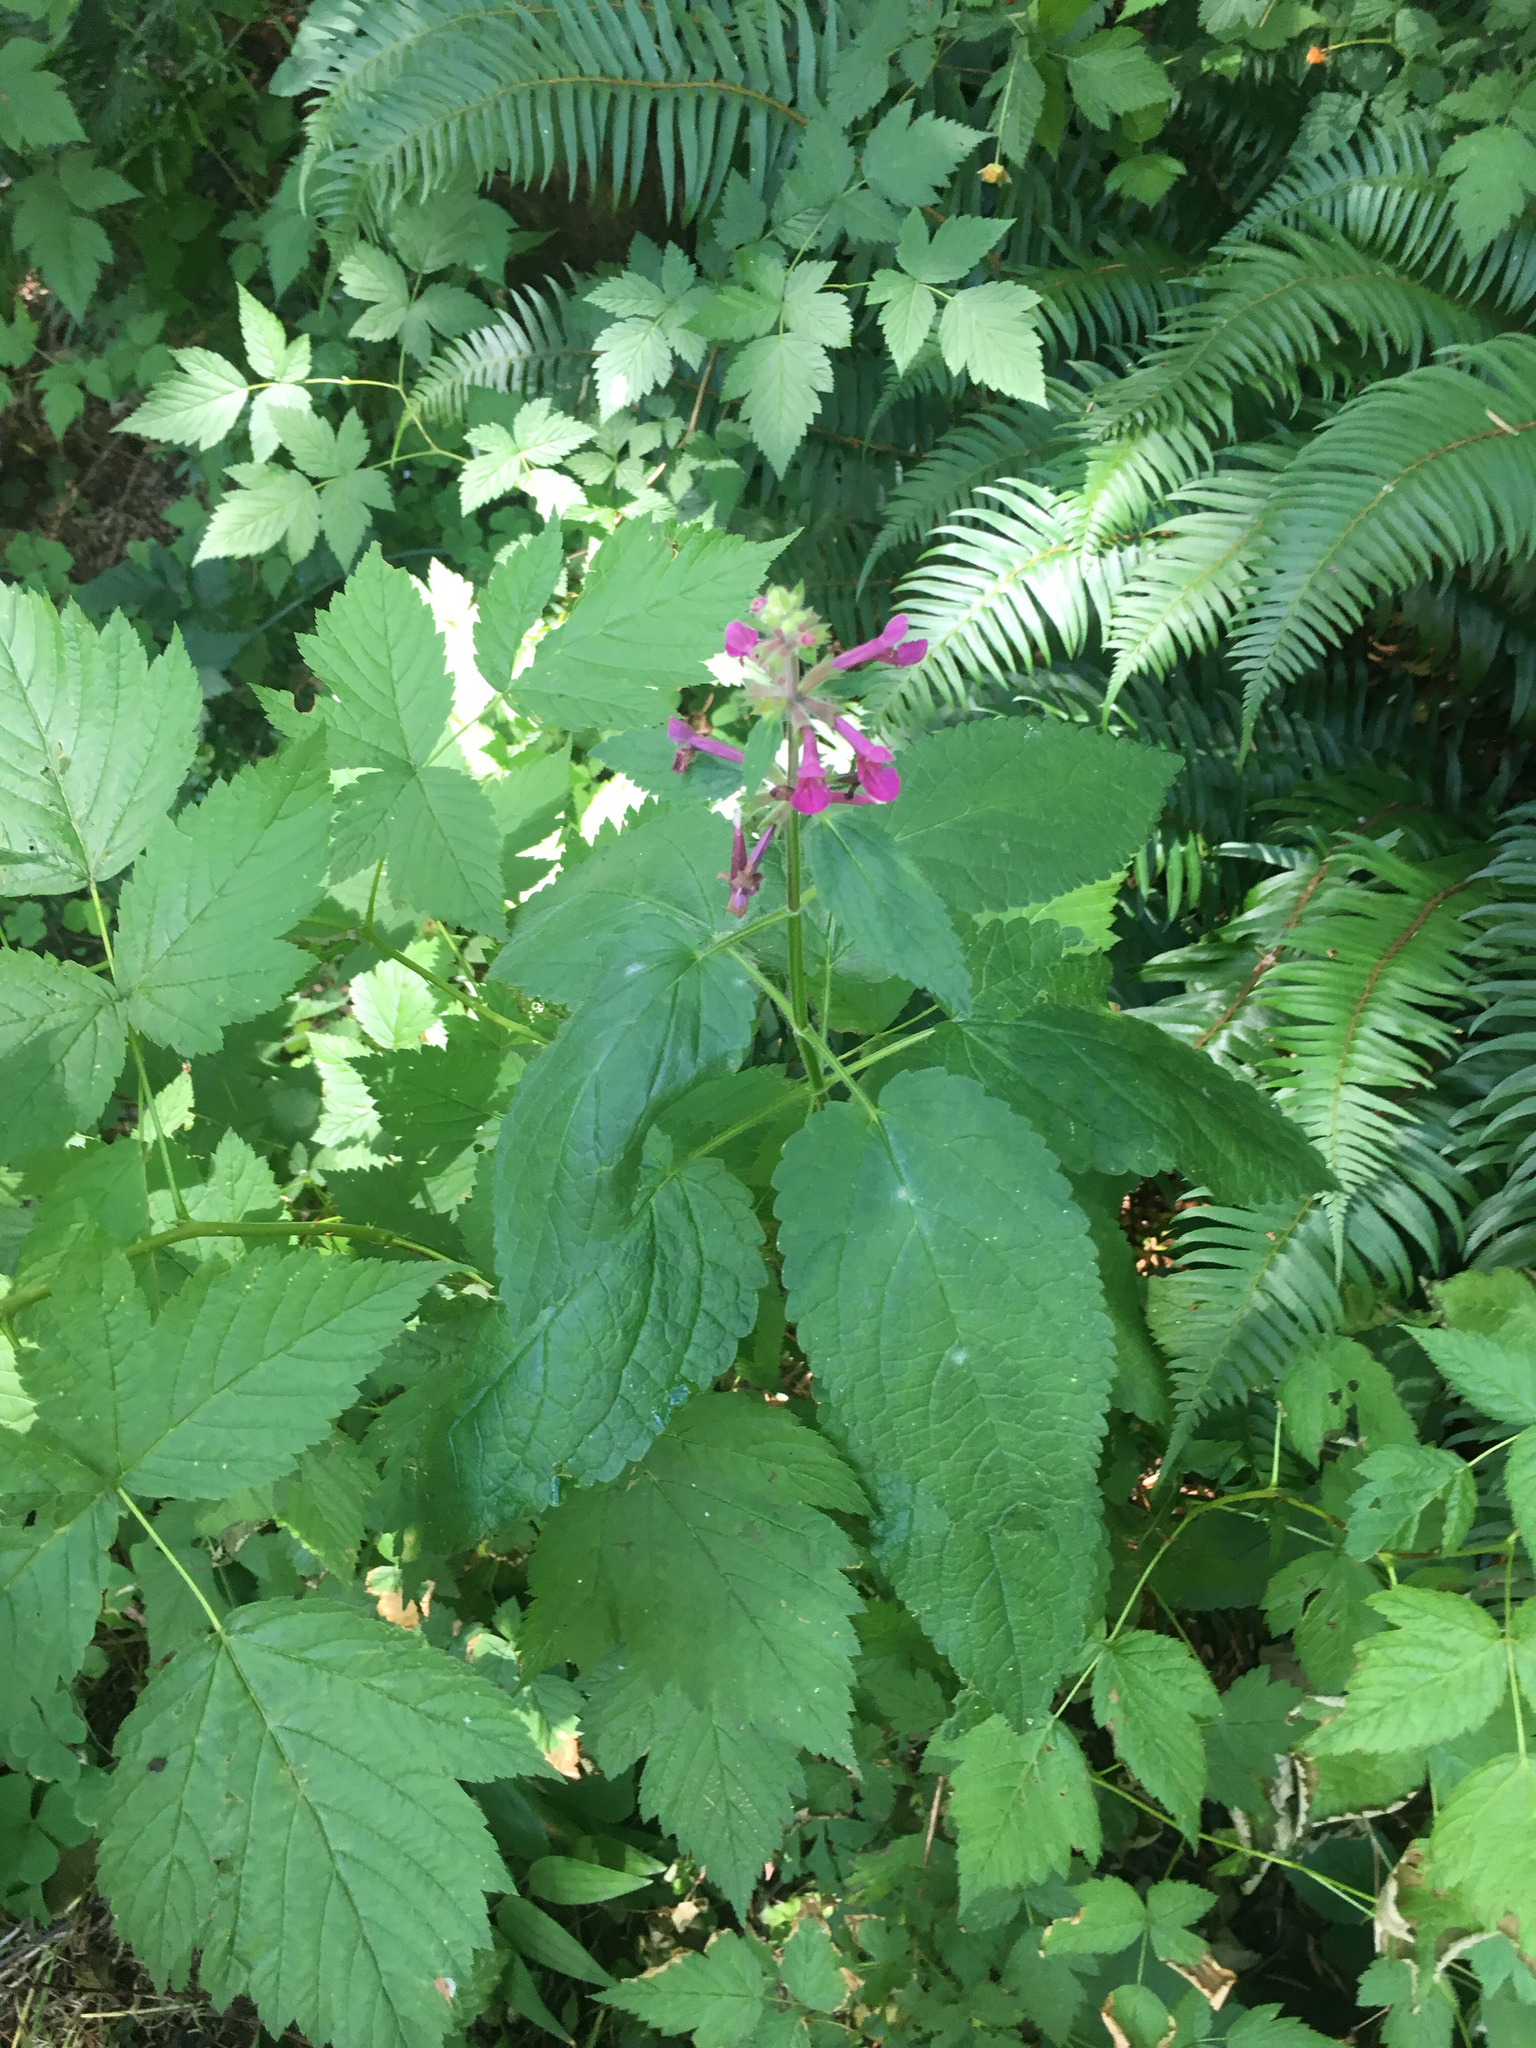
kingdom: Plantae
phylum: Tracheophyta
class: Magnoliopsida
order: Lamiales
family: Lamiaceae
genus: Stachys
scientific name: Stachys chamissonis
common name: Coastal hedge-nettle
